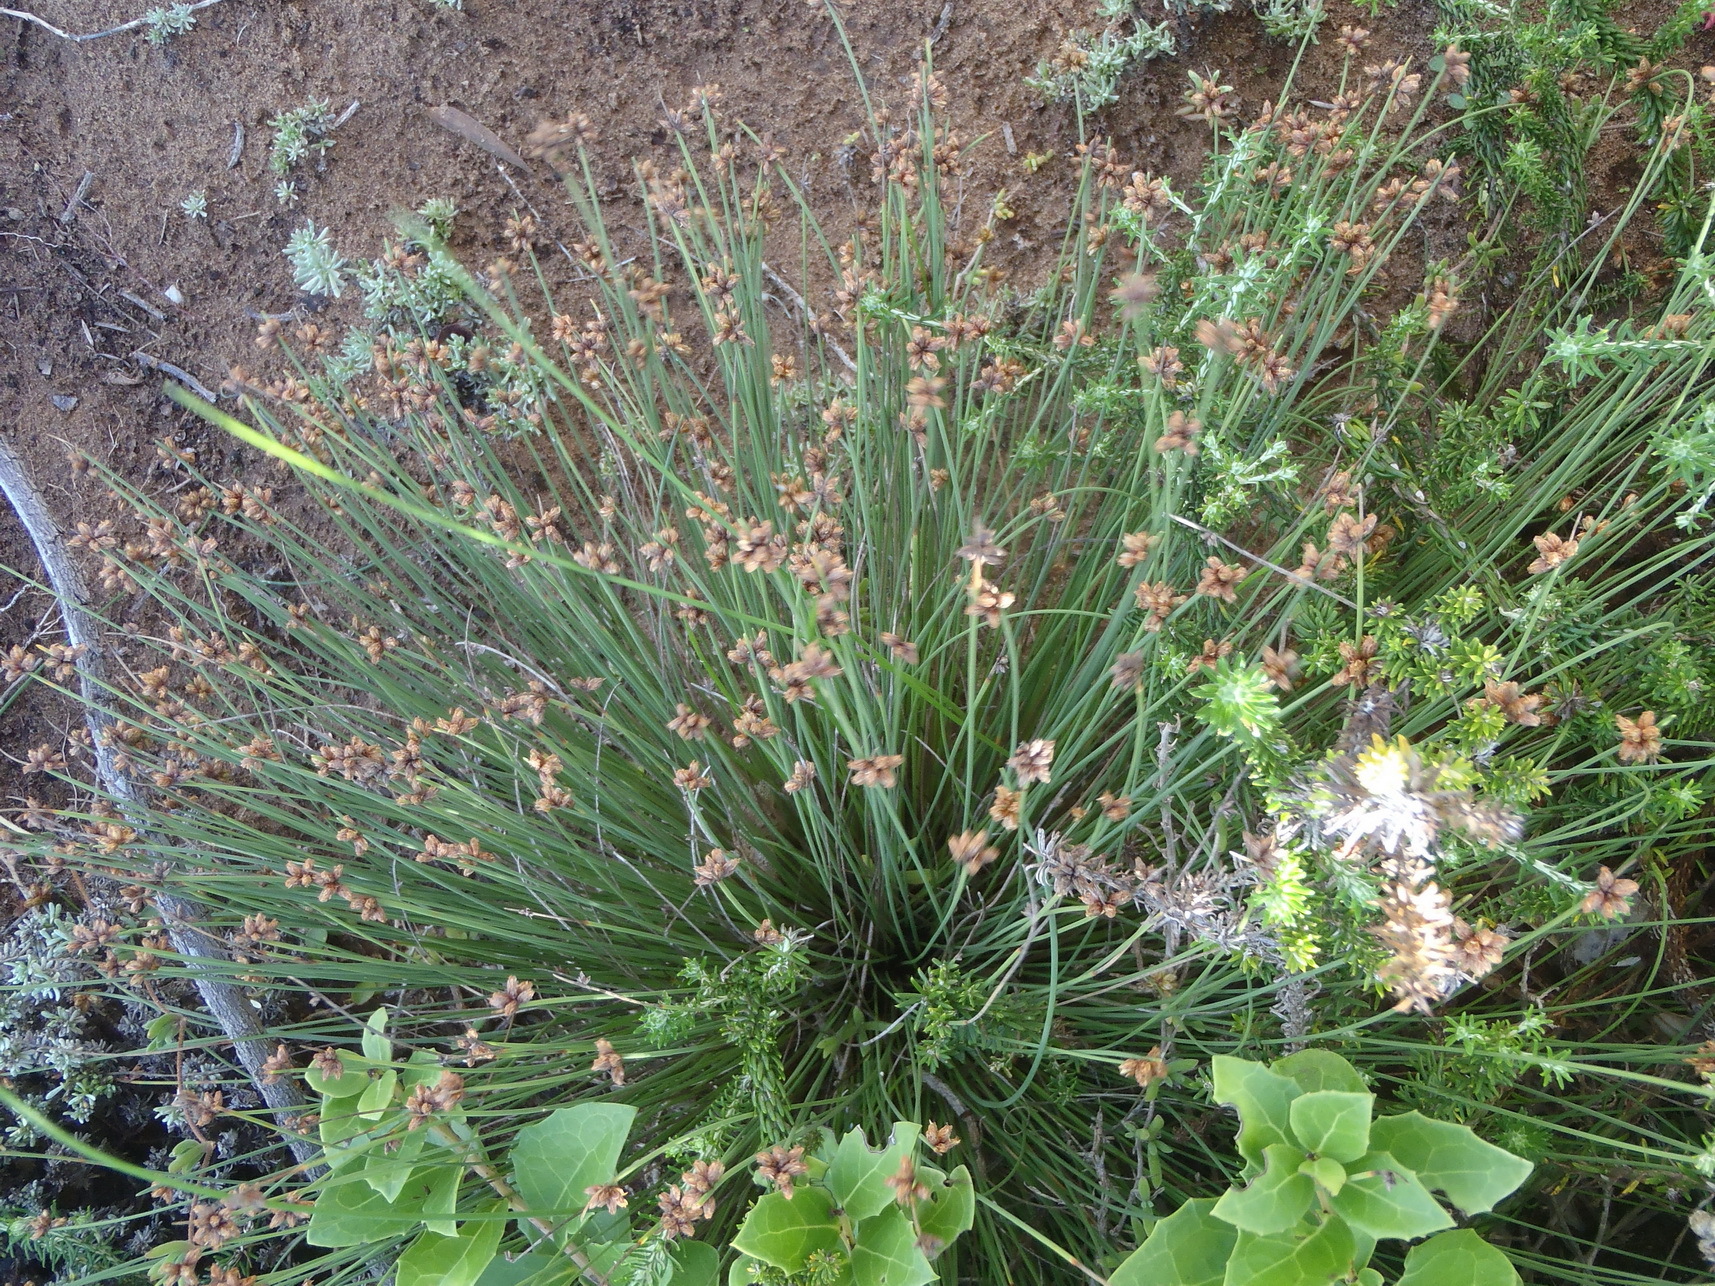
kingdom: Plantae
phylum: Tracheophyta
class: Liliopsida
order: Poales
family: Cyperaceae
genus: Ficinia
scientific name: Ficinia lateralis
